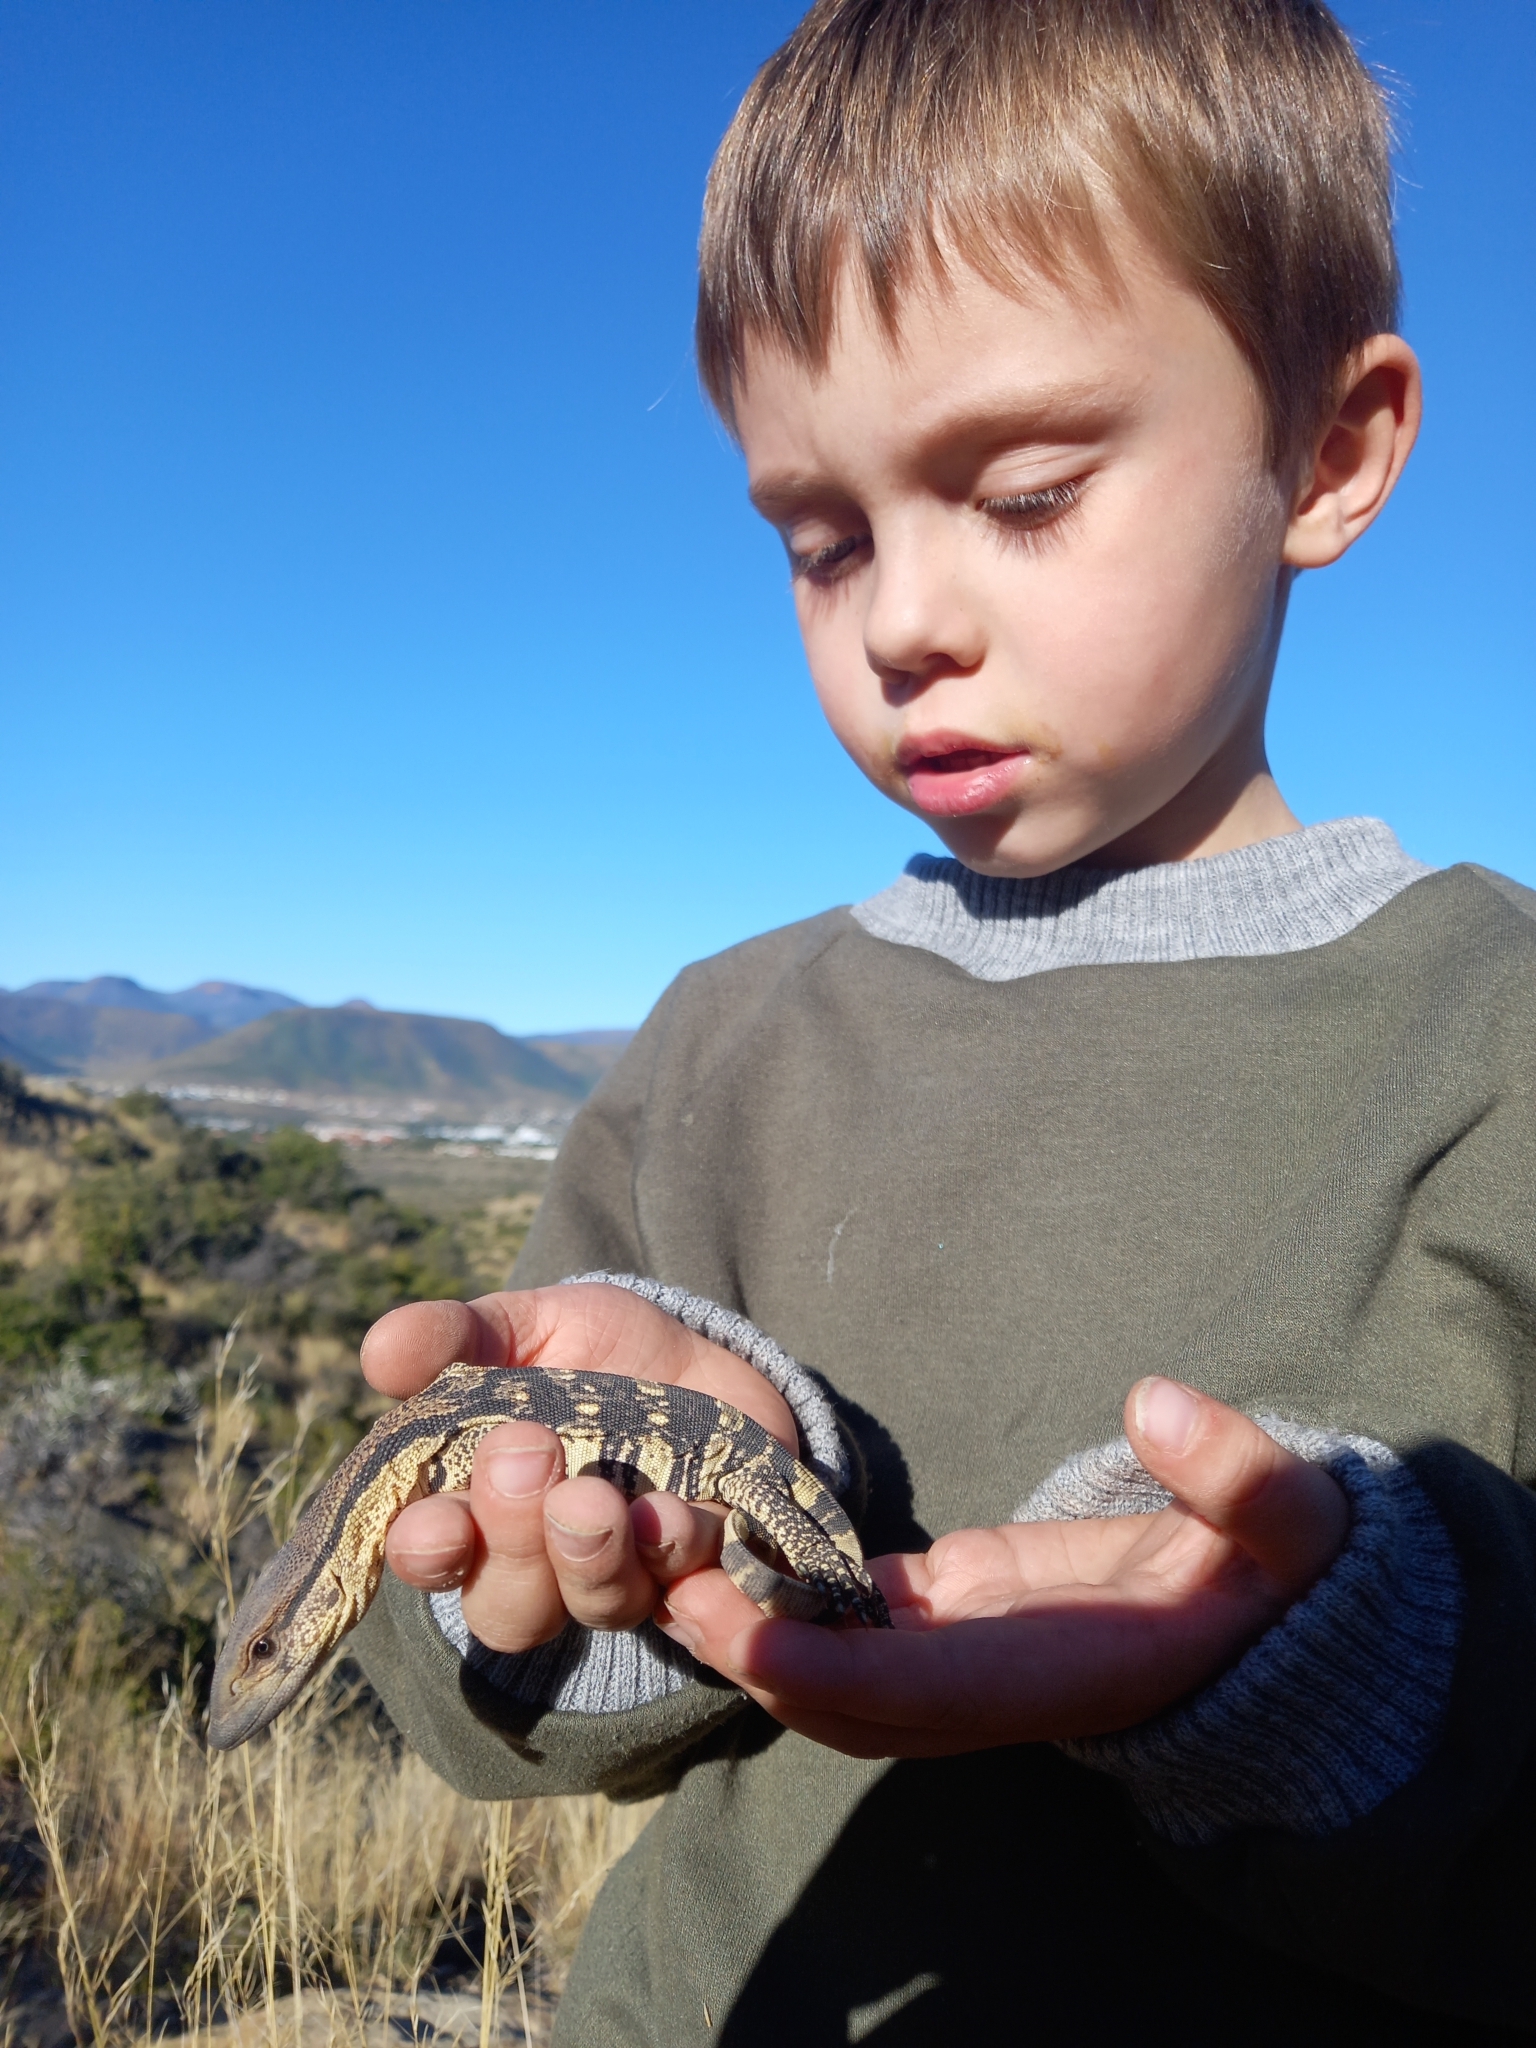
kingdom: Animalia
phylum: Chordata
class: Squamata
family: Varanidae
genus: Varanus
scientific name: Varanus albigularis
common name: White-throated monitor
